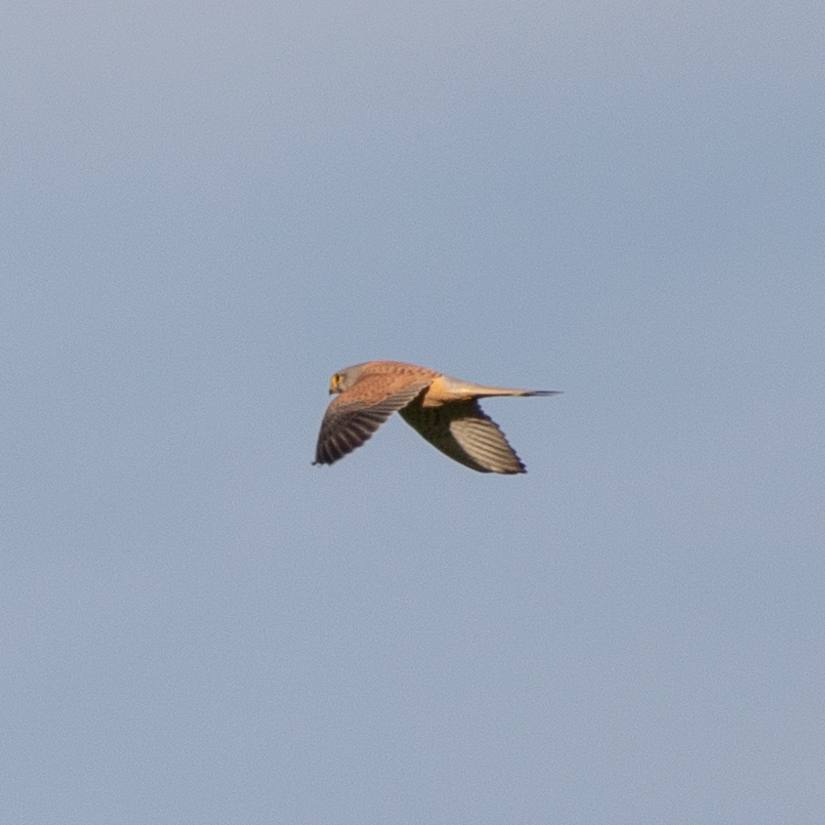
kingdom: Animalia
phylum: Chordata
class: Aves
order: Falconiformes
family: Falconidae
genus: Falco
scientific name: Falco tinnunculus
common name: Common kestrel
